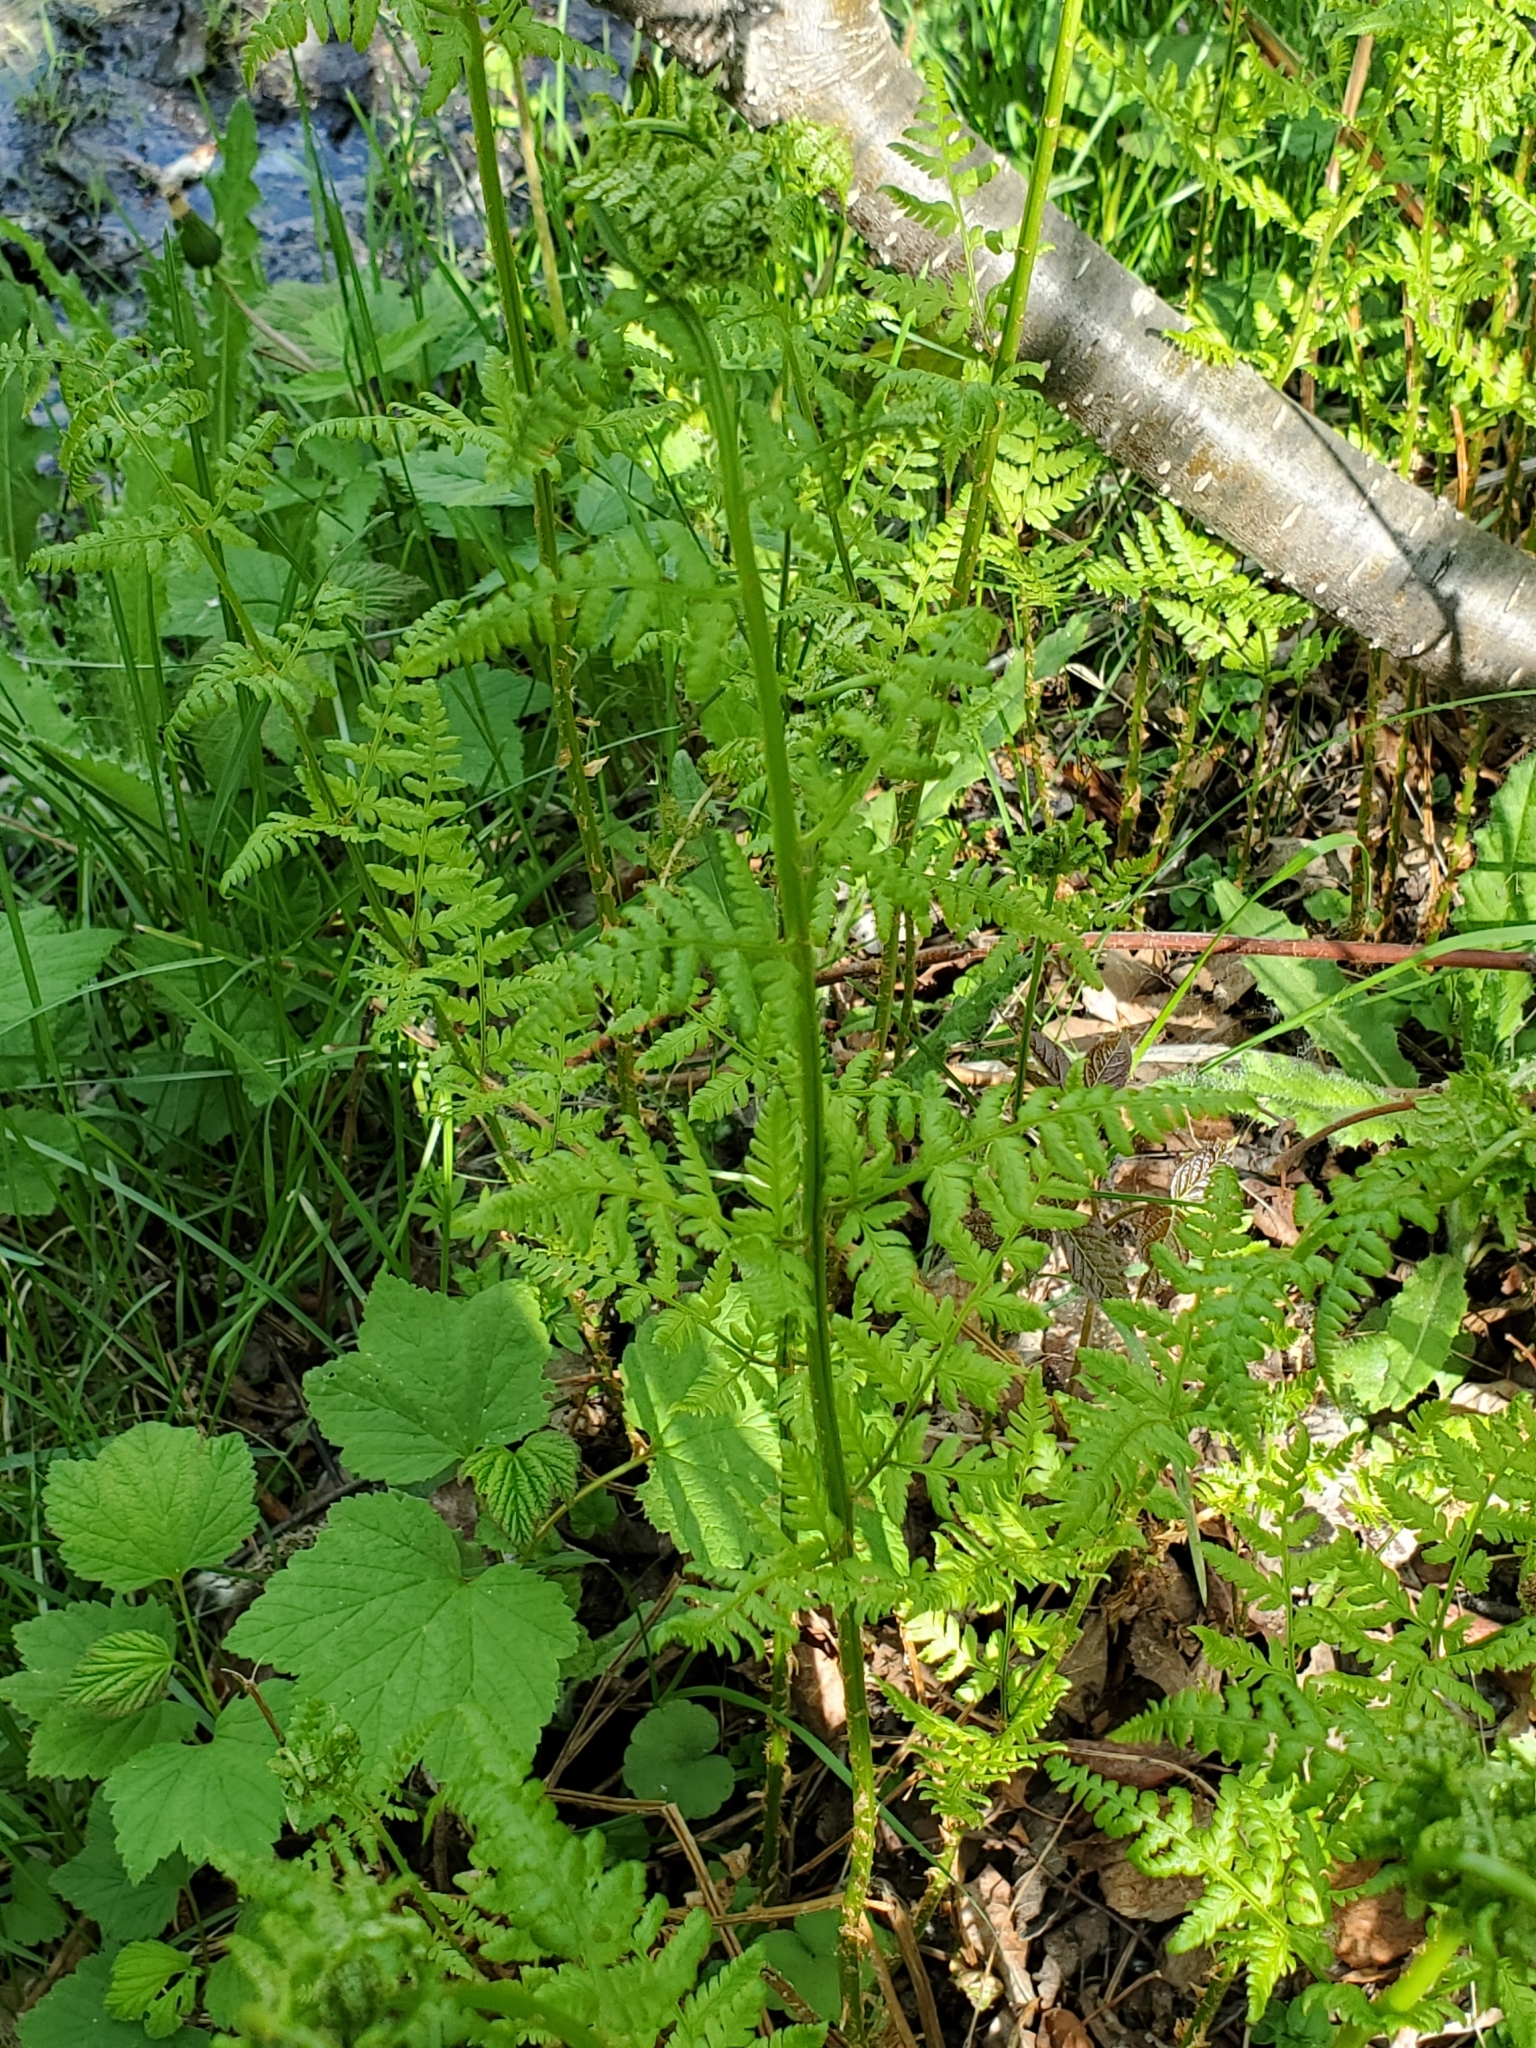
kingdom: Plantae
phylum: Tracheophyta
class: Polypodiopsida
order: Polypodiales
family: Dryopteridaceae
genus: Dryopteris
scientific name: Dryopteris carthusiana
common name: Narrow buckler-fern
